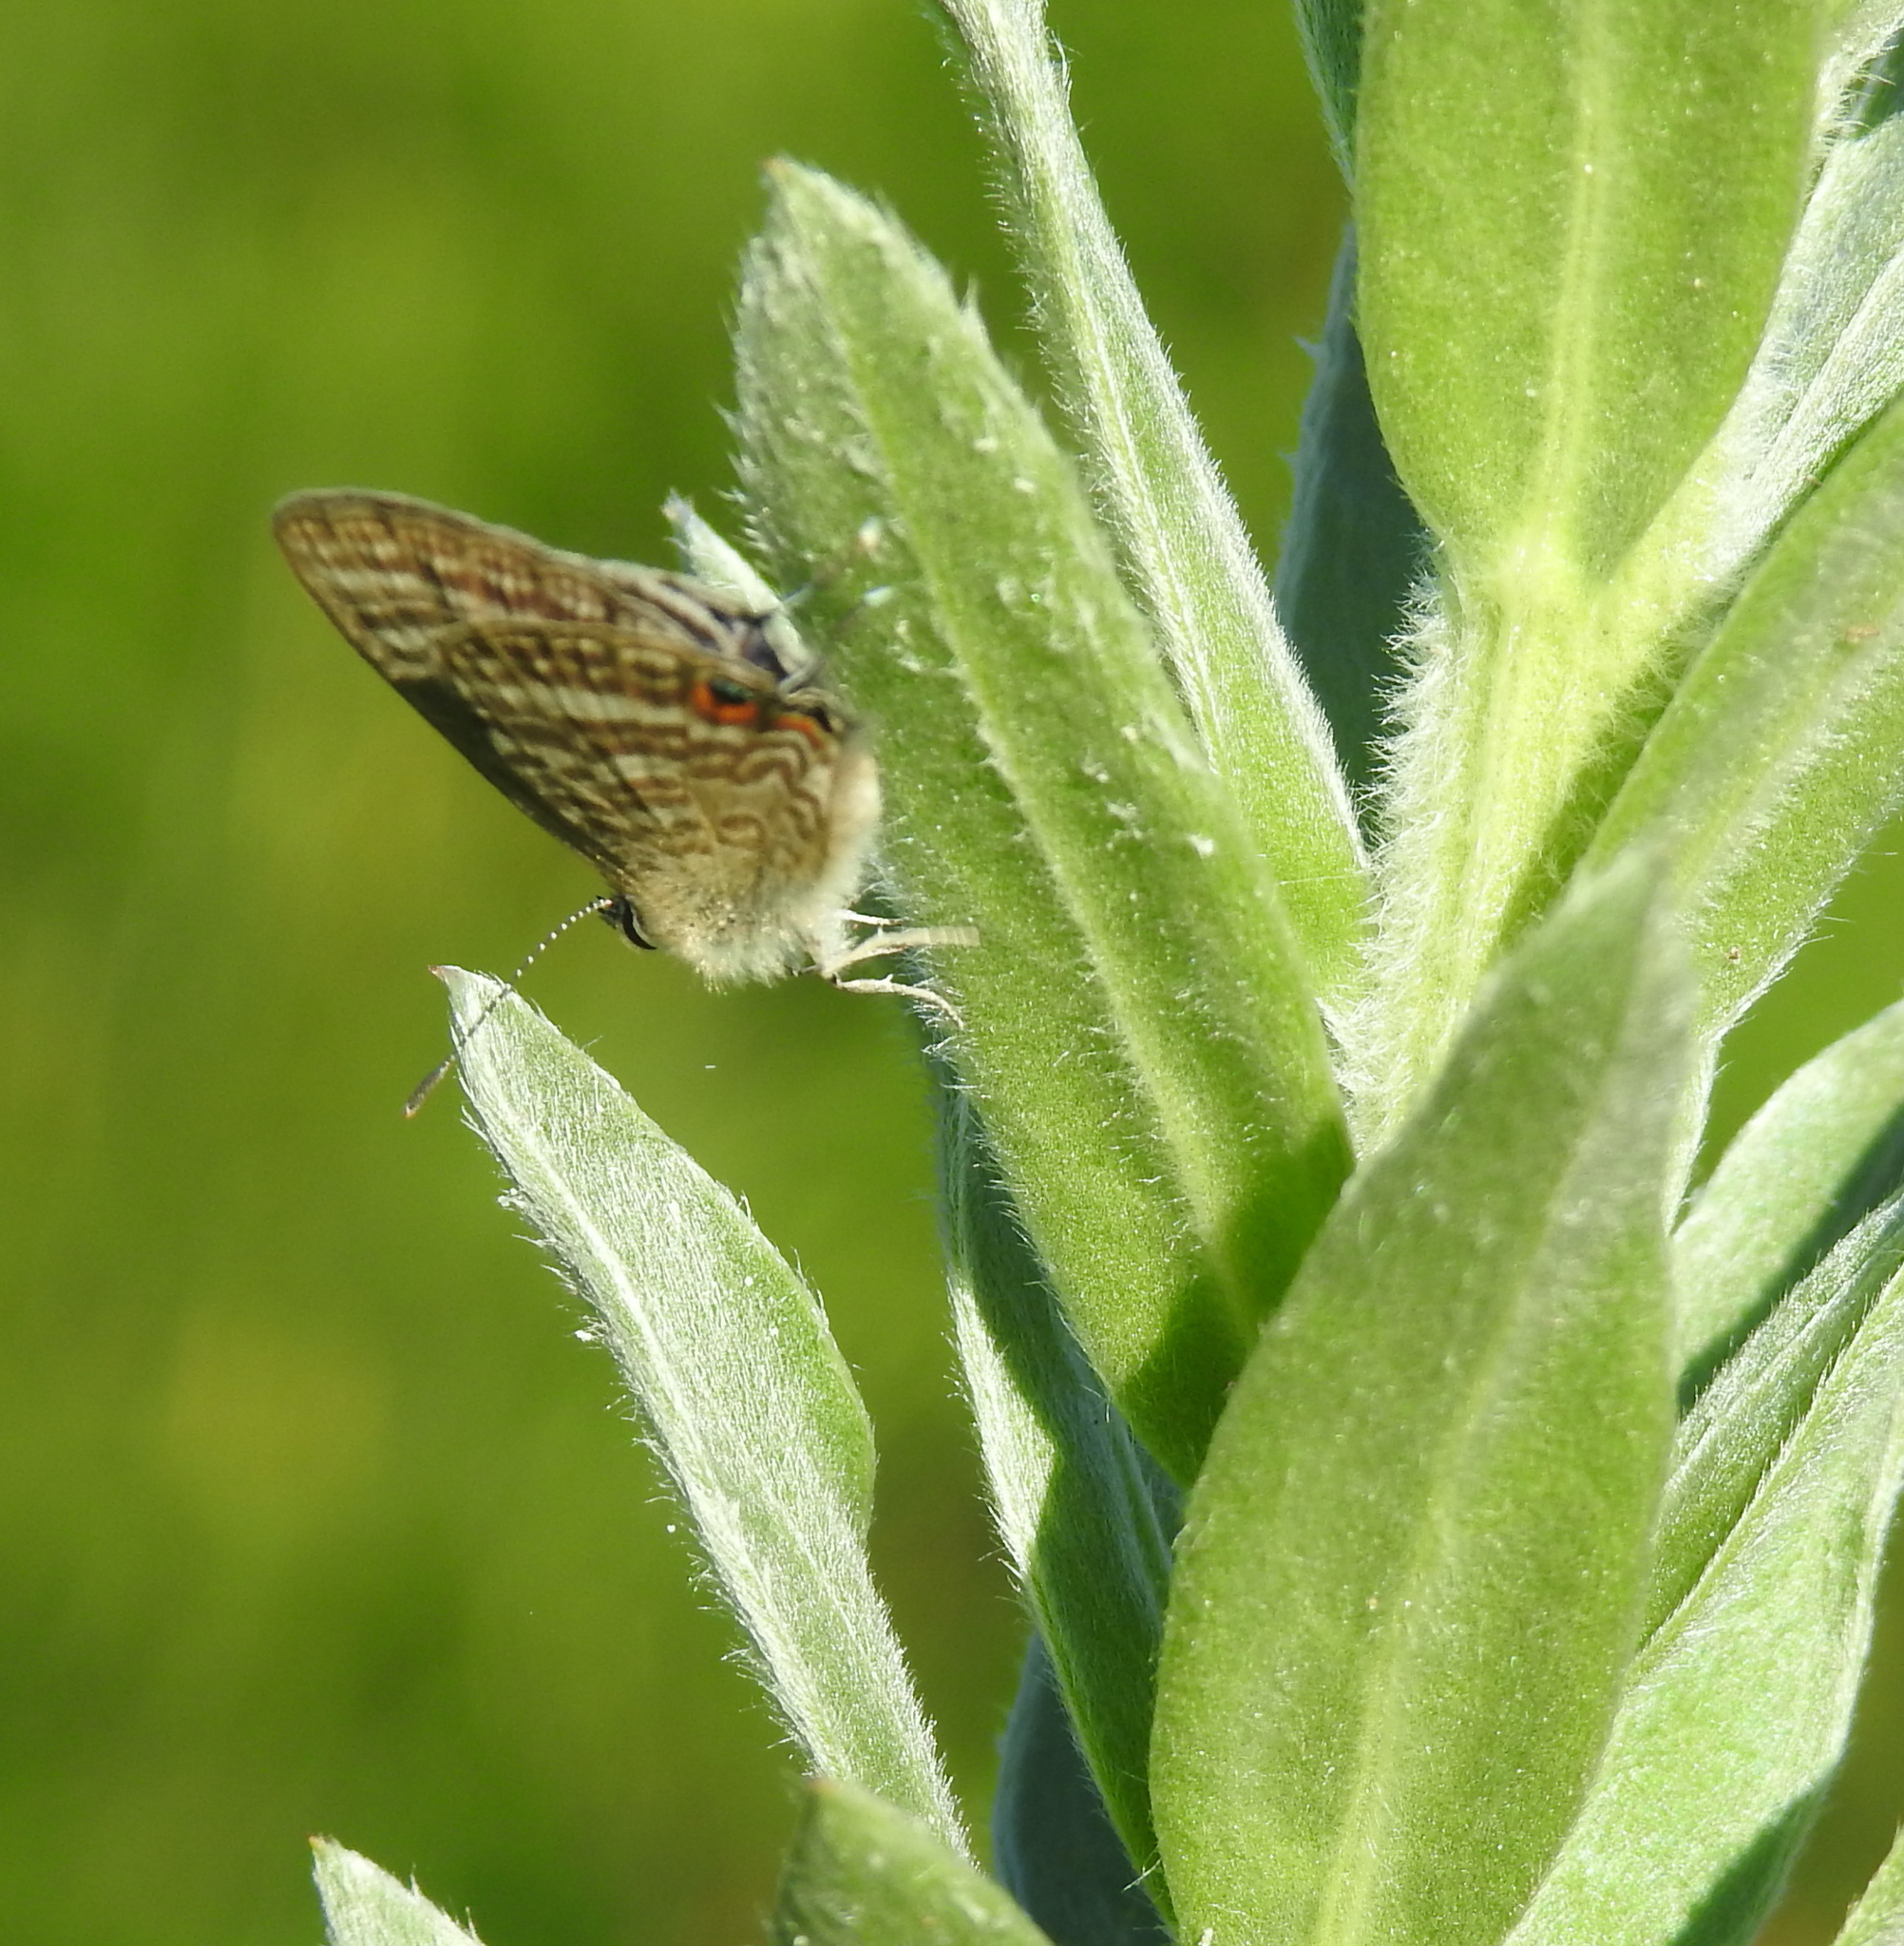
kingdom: Animalia
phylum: Arthropoda
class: Insecta
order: Lepidoptera
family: Lycaenidae
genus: Lampides
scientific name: Lampides boeticus
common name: Long-tailed blue
